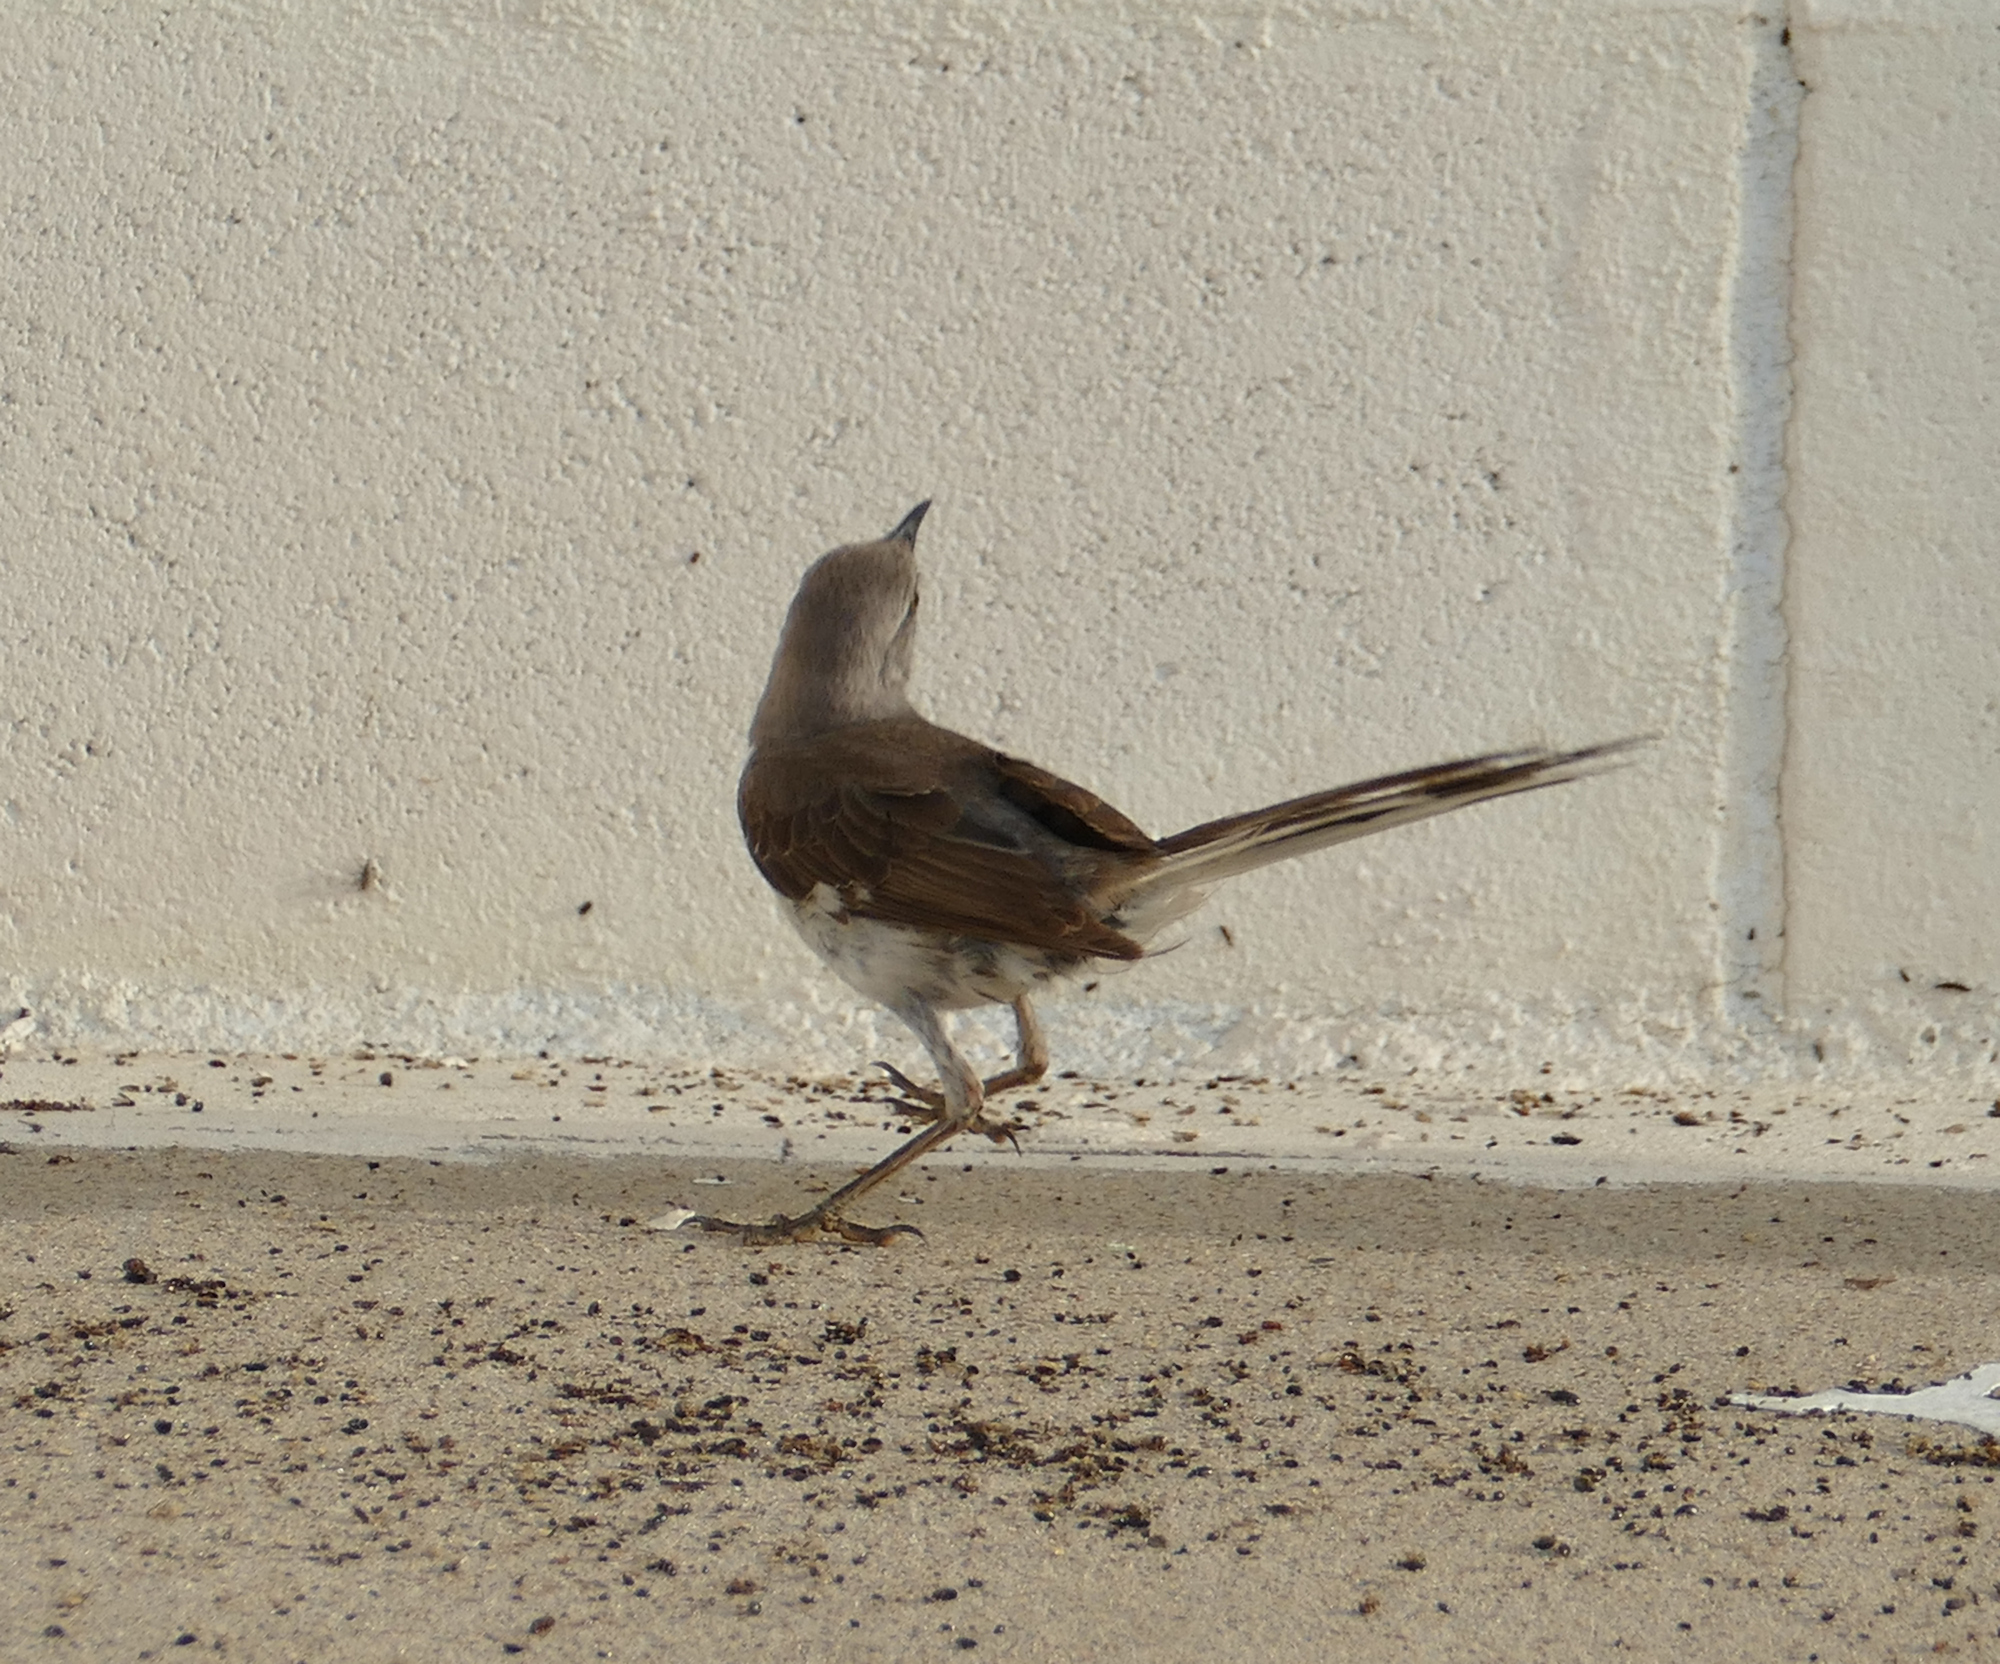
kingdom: Animalia
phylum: Chordata
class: Aves
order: Passeriformes
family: Mimidae
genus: Mimus
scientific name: Mimus polyglottos
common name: Northern mockingbird
